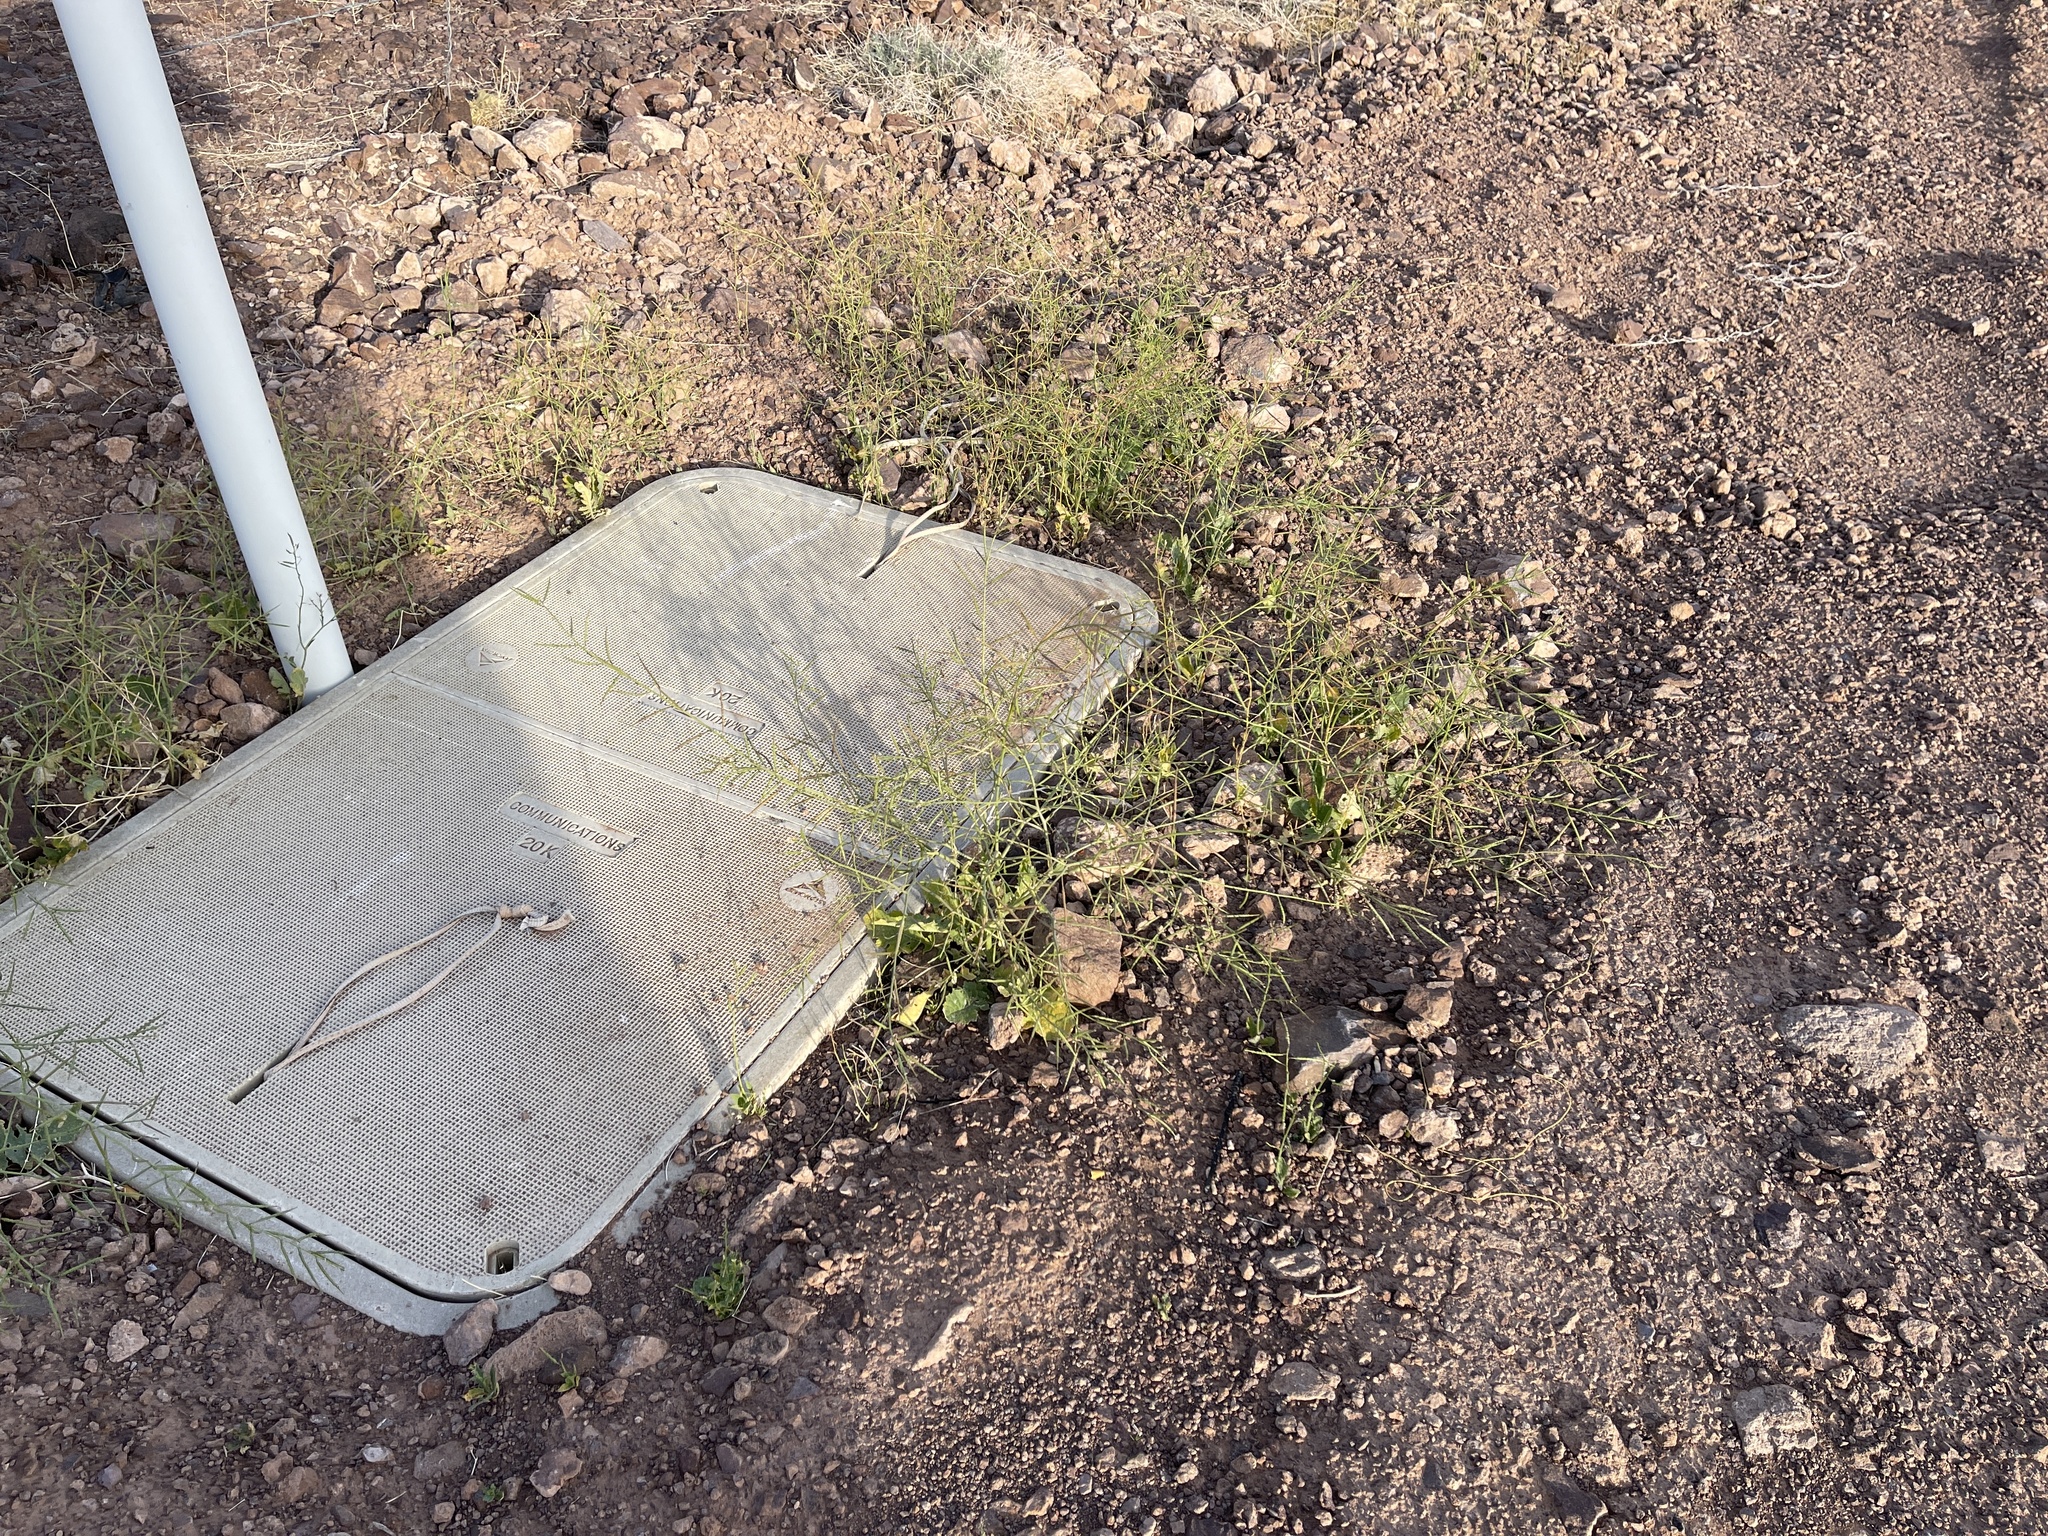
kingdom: Plantae
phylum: Tracheophyta
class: Magnoliopsida
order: Brassicales
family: Brassicaceae
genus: Brassica
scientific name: Brassica tournefortii
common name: Pale cabbage
